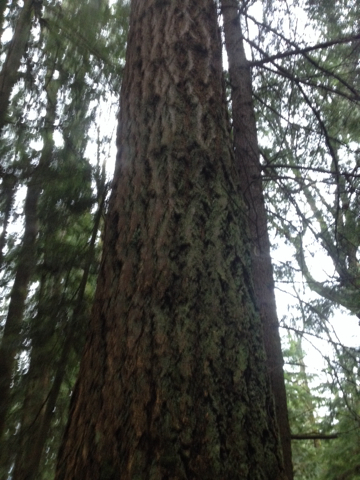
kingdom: Plantae
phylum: Tracheophyta
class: Pinopsida
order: Pinales
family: Pinaceae
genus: Pseudotsuga
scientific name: Pseudotsuga menziesii
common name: Douglas fir
